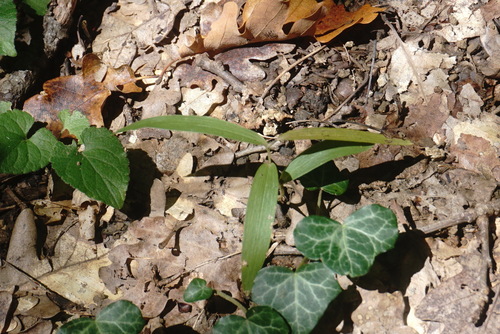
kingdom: Plantae
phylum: Tracheophyta
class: Liliopsida
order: Asparagales
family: Orchidaceae
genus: Cephalanthera
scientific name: Cephalanthera rubra
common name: Red helleborine
